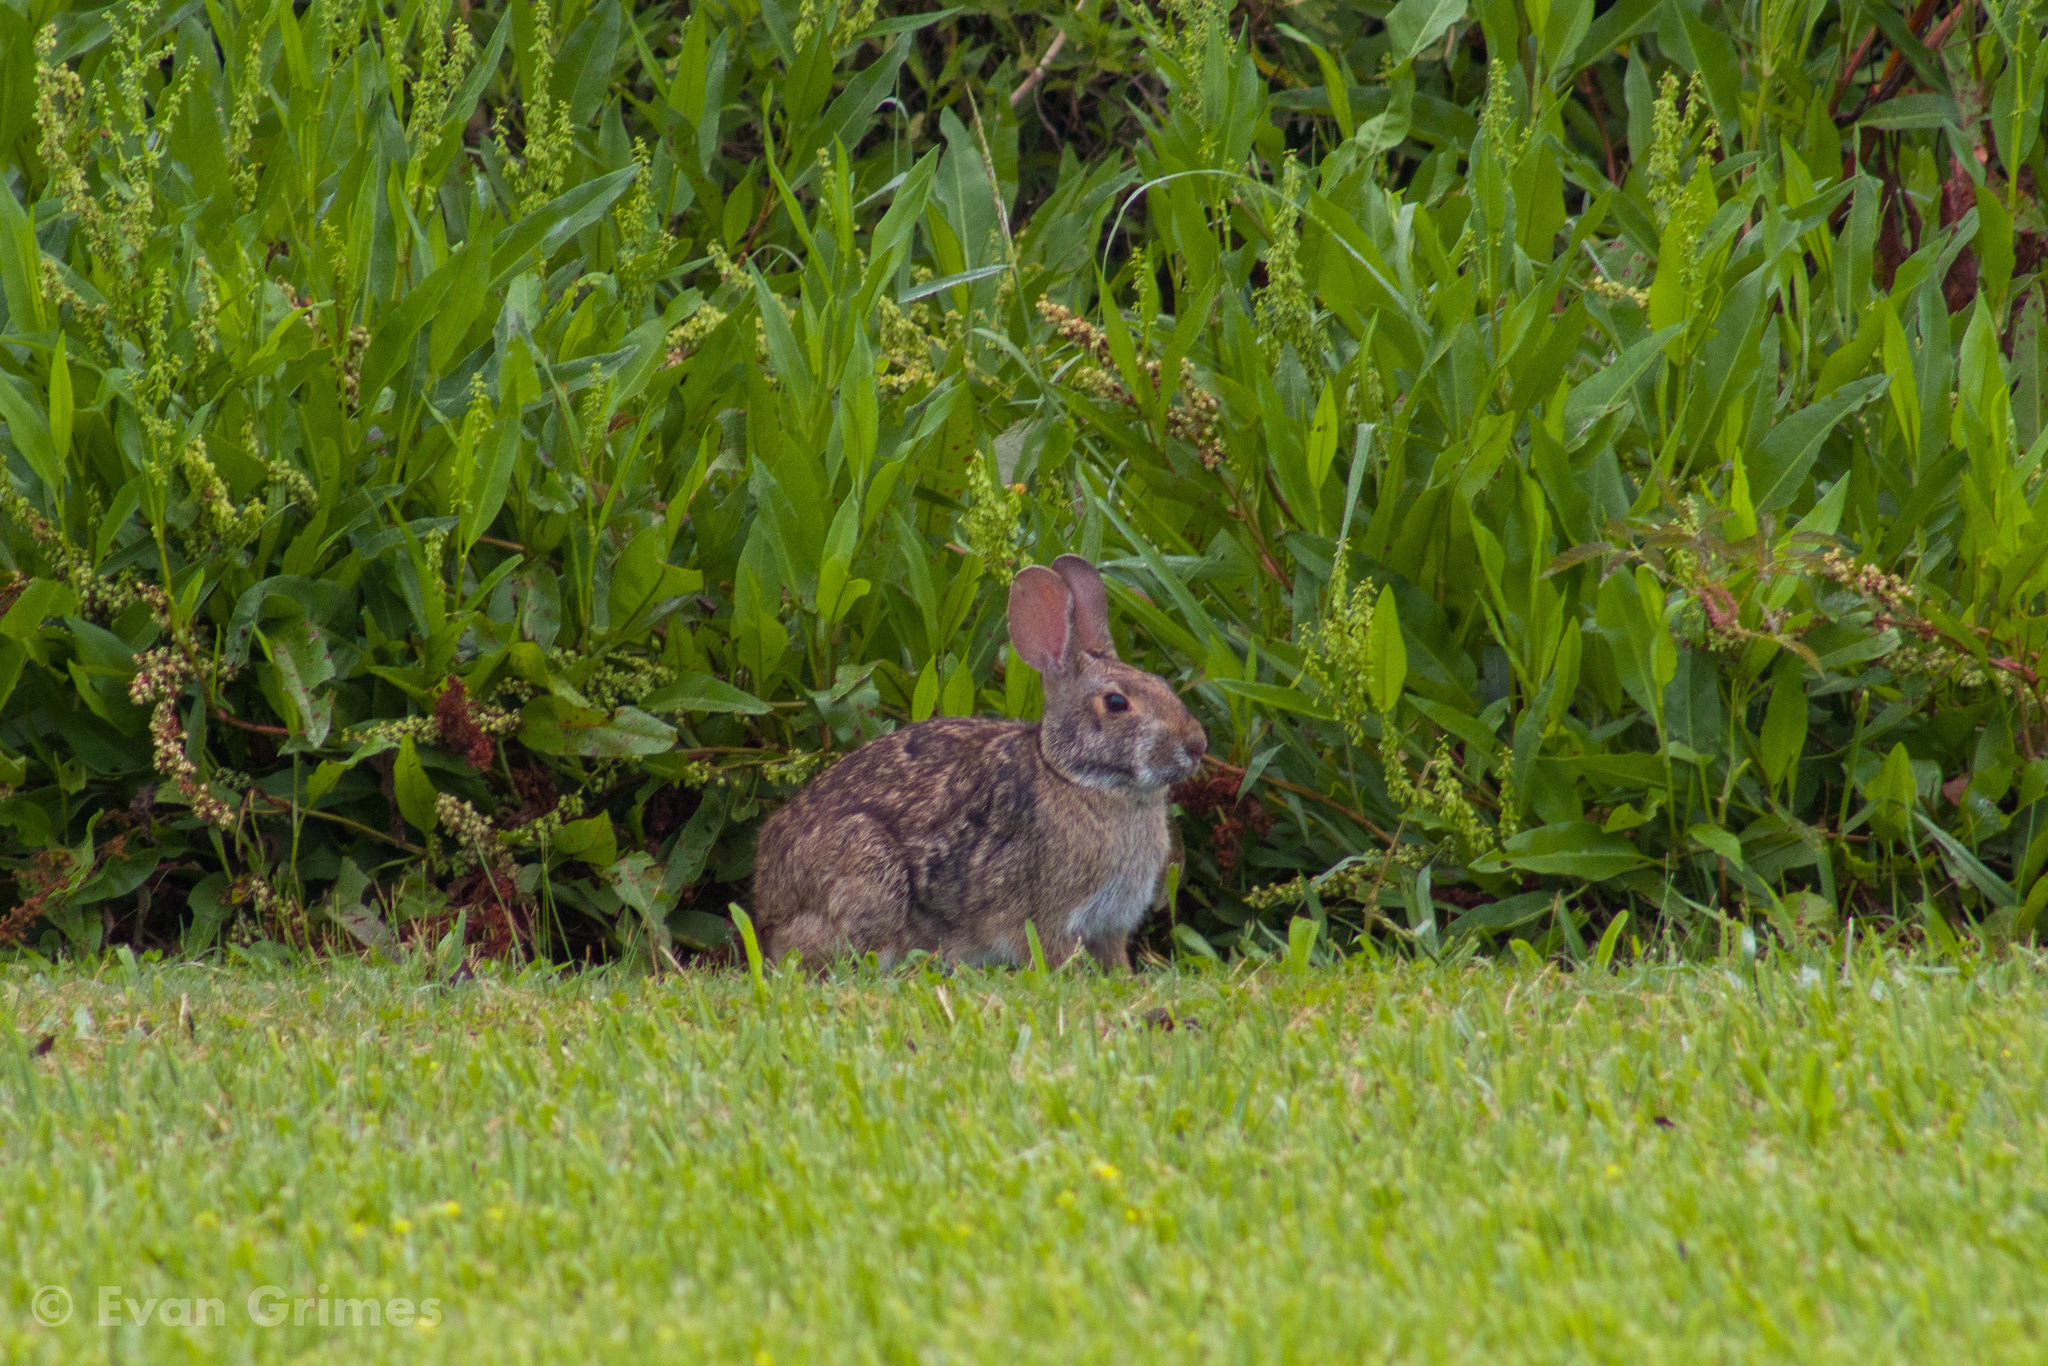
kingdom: Animalia
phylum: Chordata
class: Mammalia
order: Lagomorpha
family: Leporidae
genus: Sylvilagus
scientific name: Sylvilagus aquaticus
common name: Swamp rabbit
